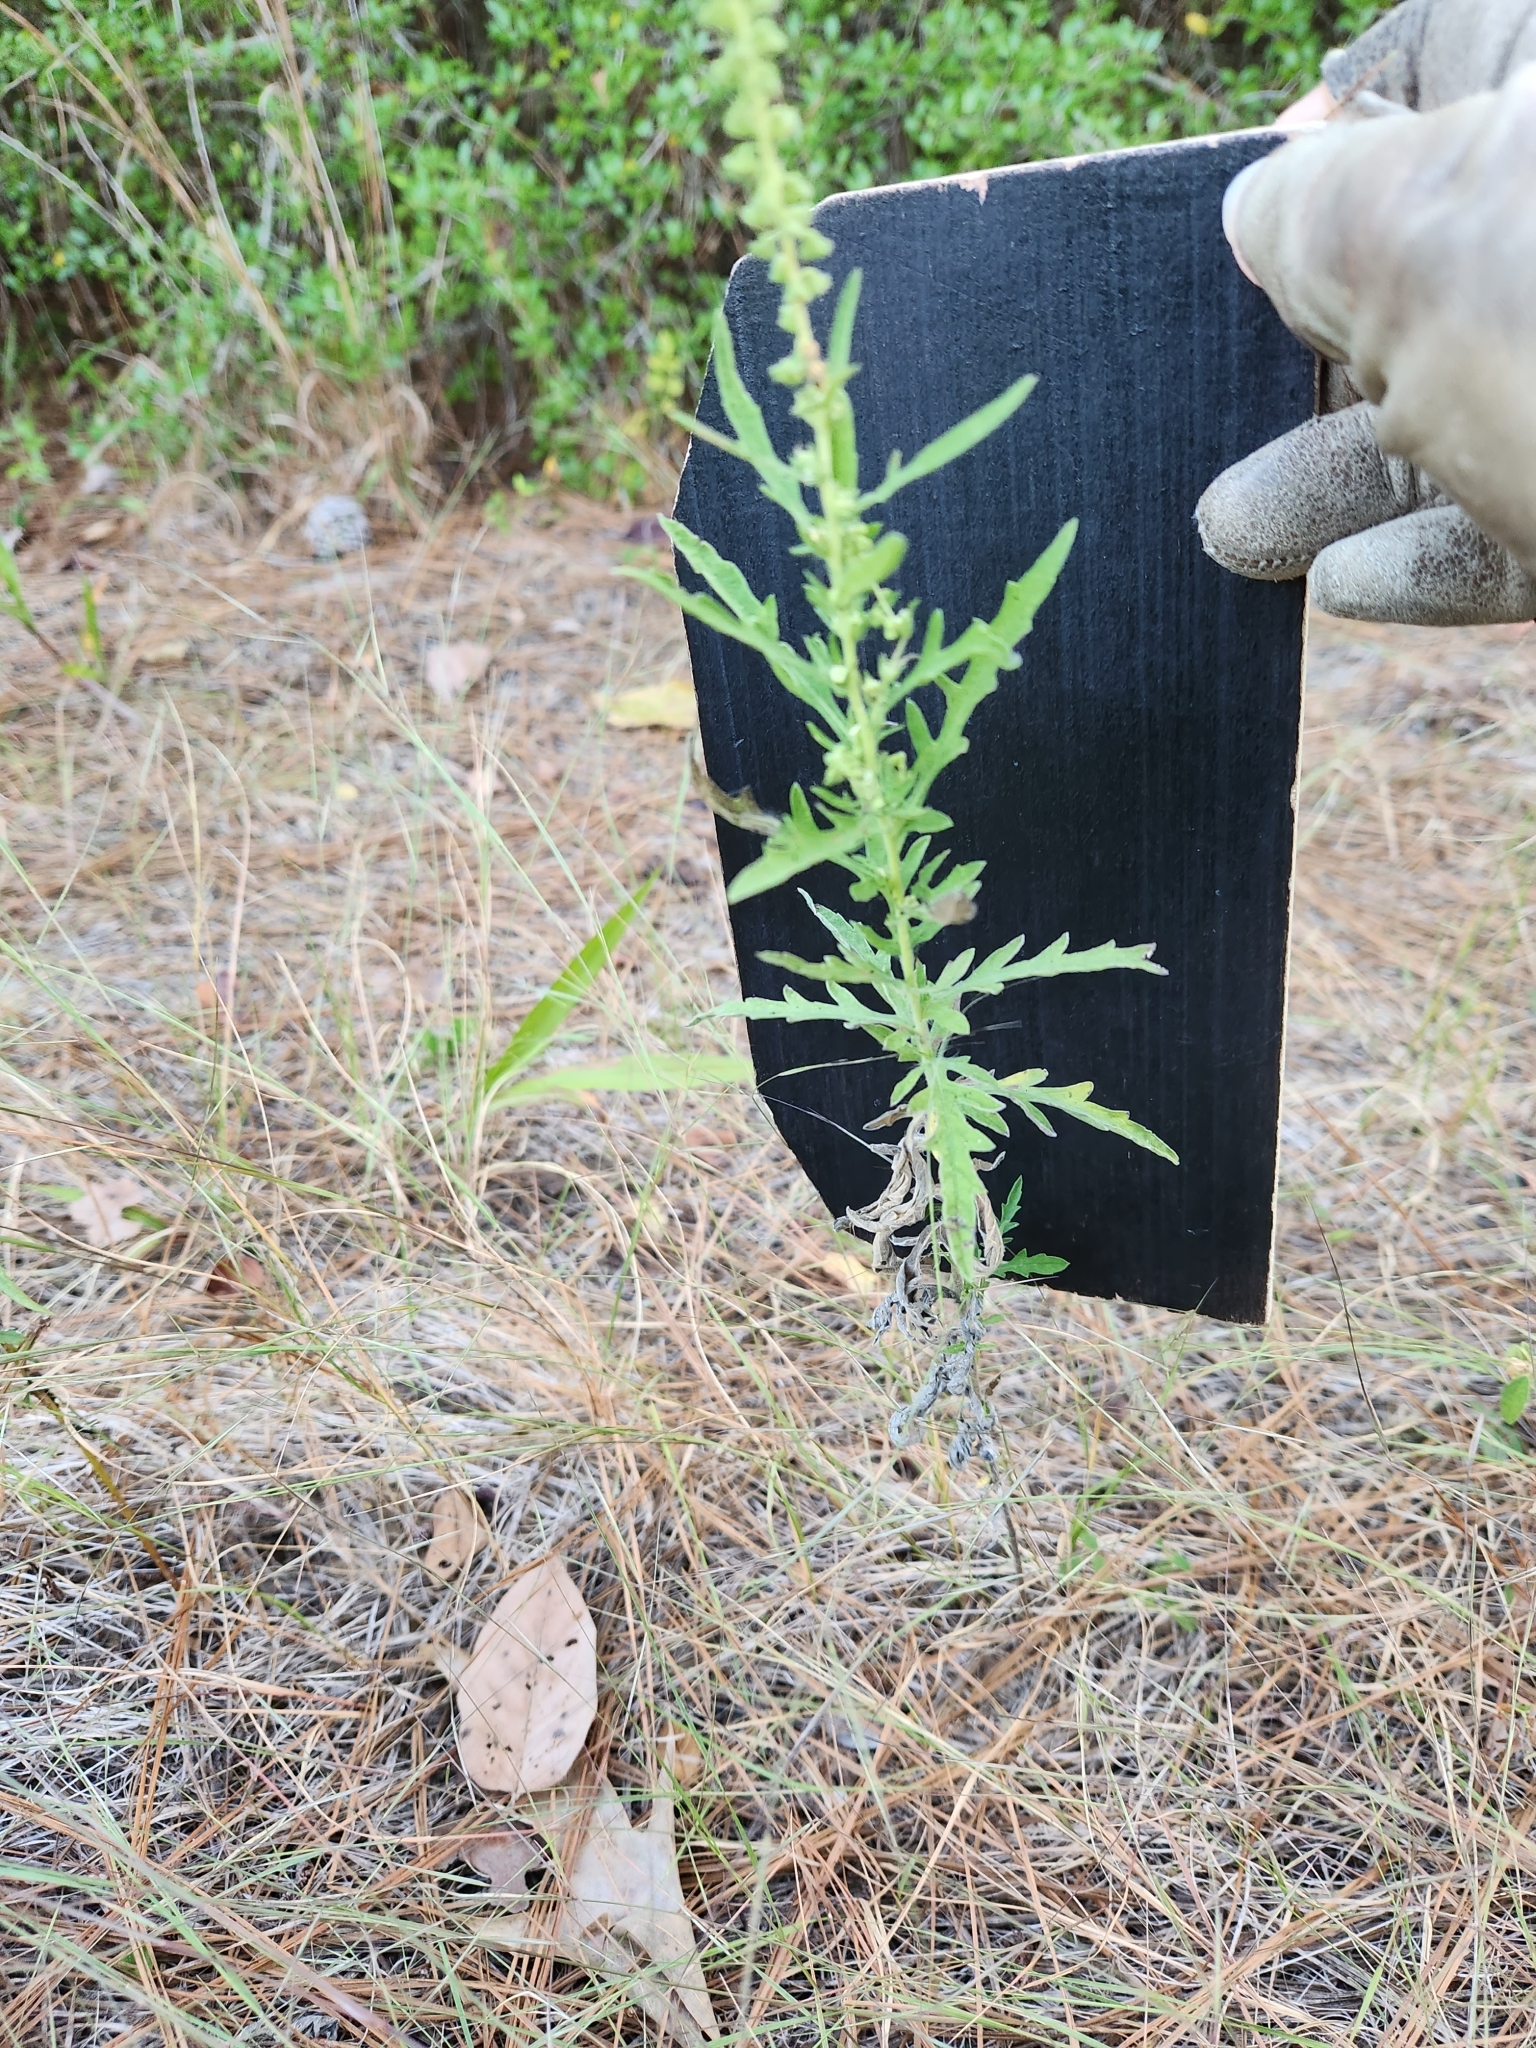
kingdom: Plantae
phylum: Tracheophyta
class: Magnoliopsida
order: Asterales
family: Asteraceae
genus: Ambrosia
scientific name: Ambrosia psilostachya
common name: Perennial ragweed
